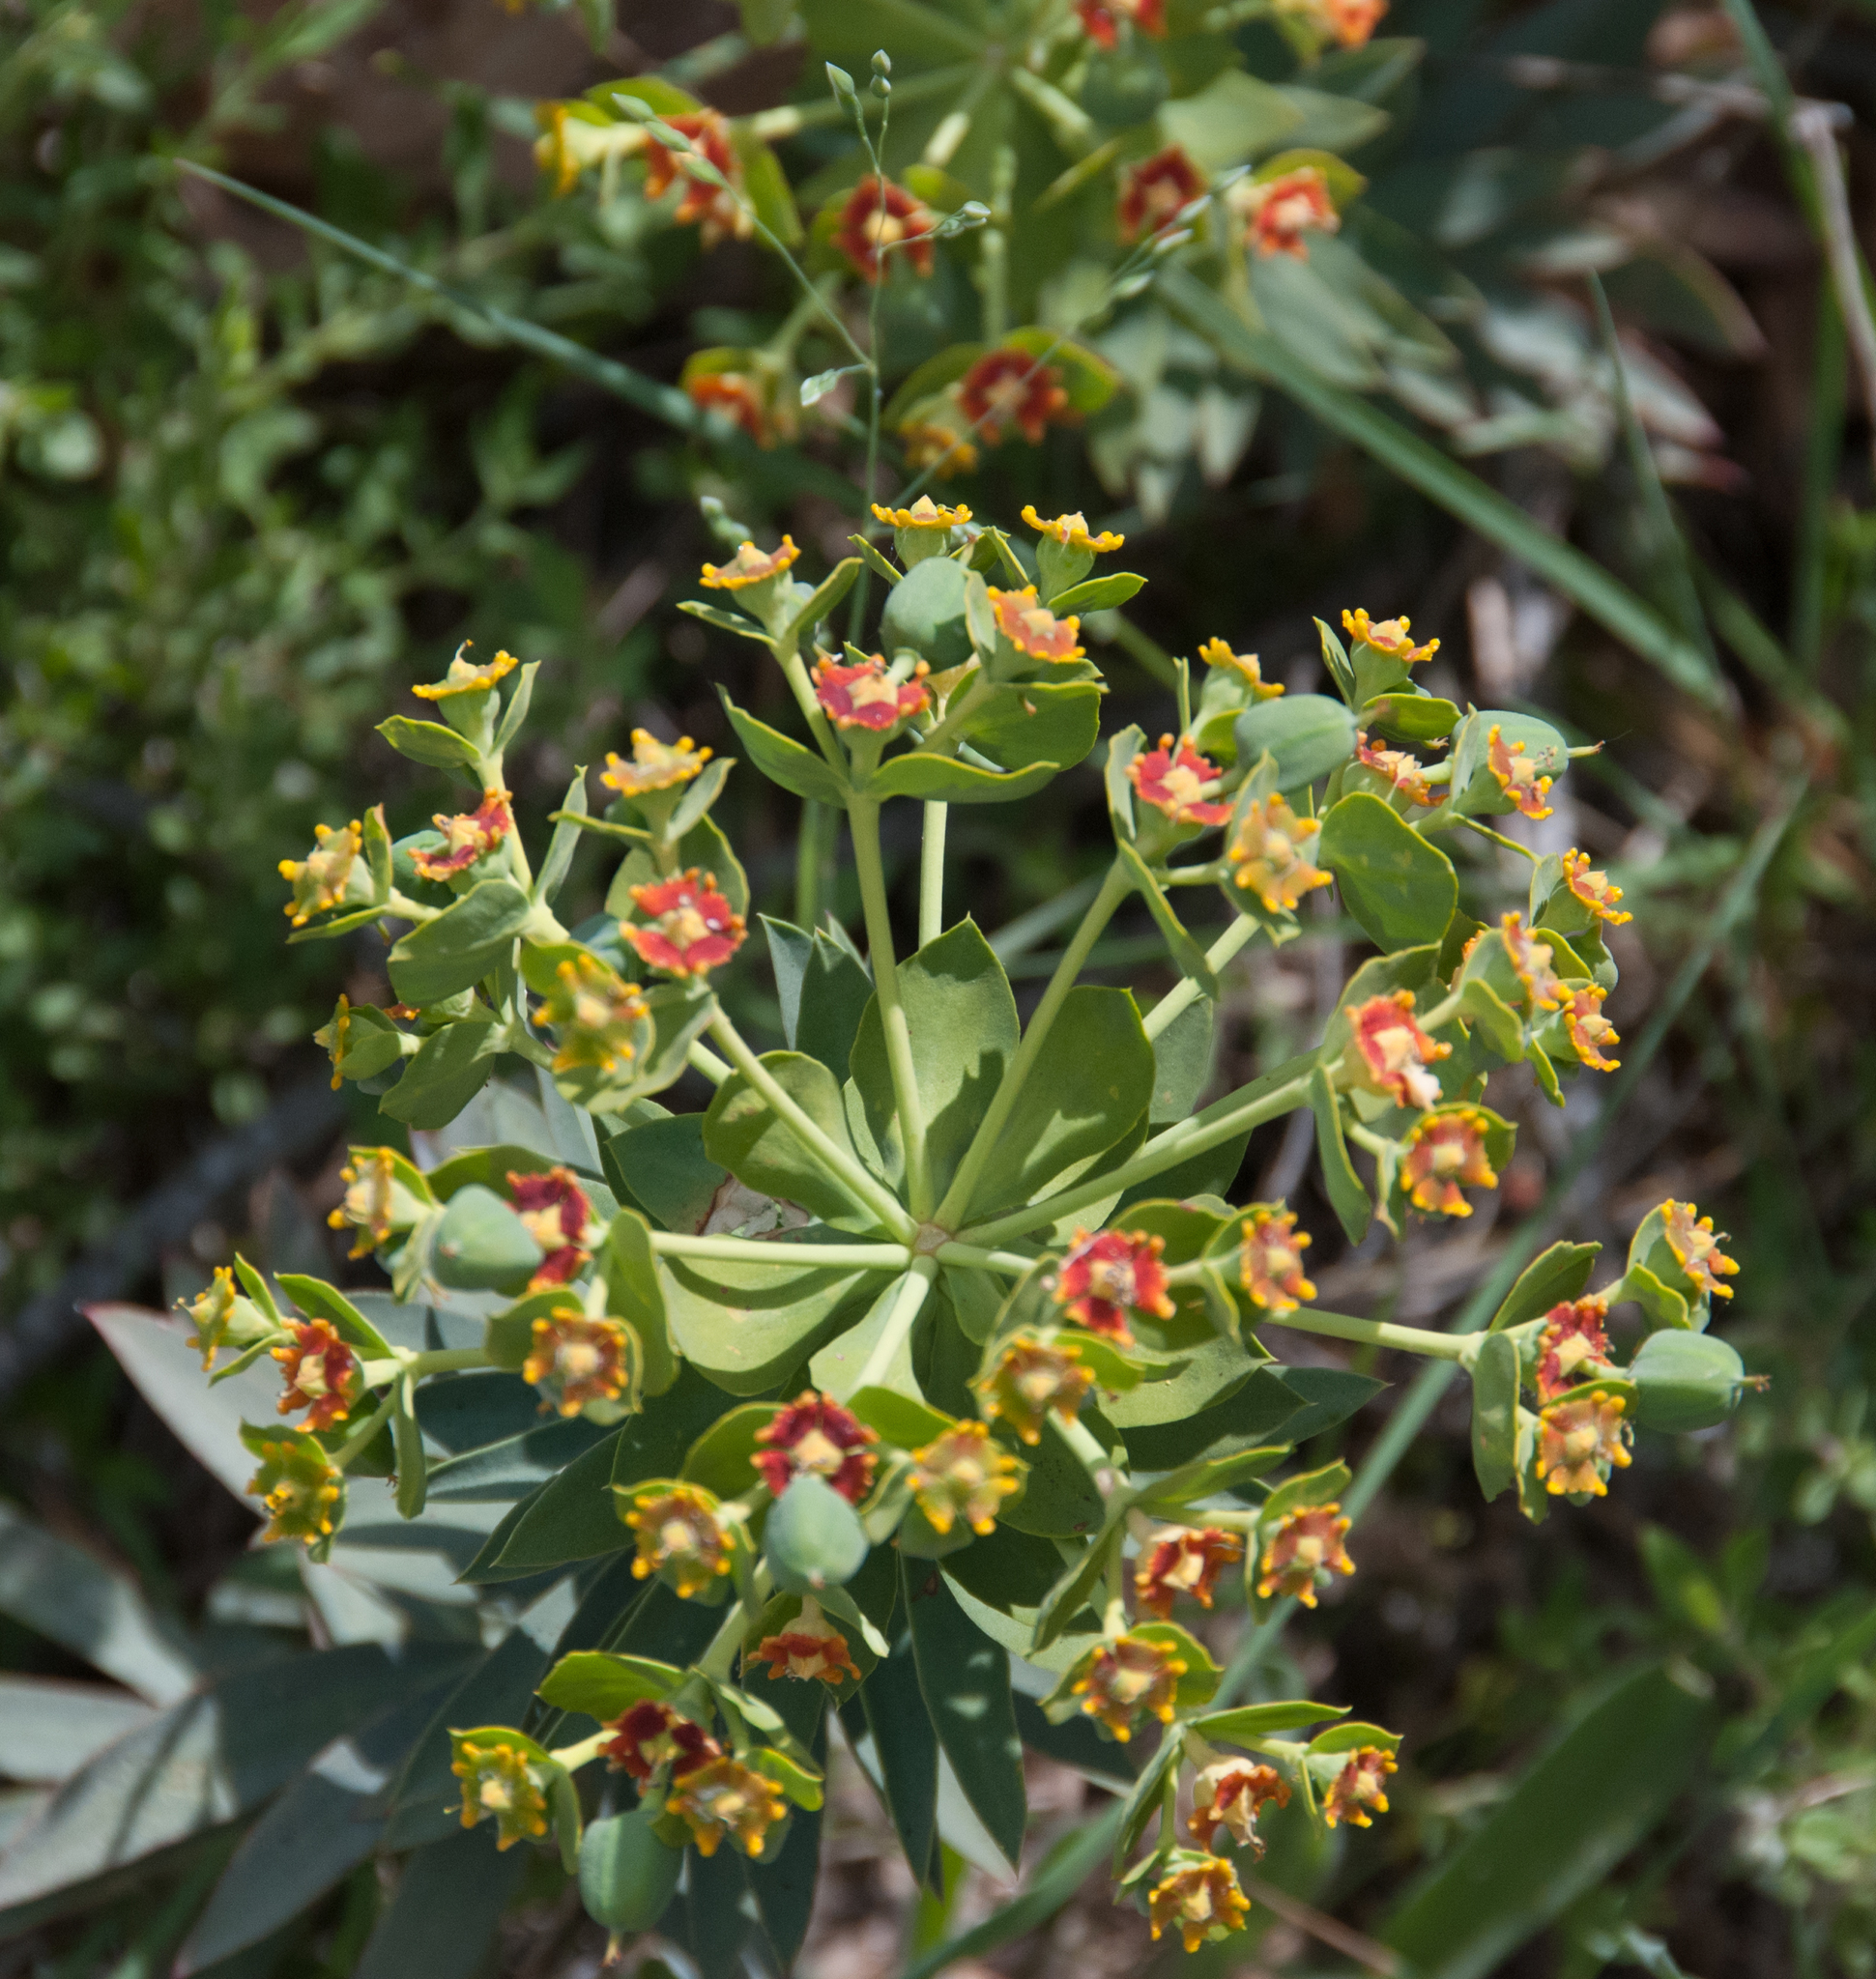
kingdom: Plantae
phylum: Tracheophyta
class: Magnoliopsida
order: Malpighiales
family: Euphorbiaceae
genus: Euphorbia
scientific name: Euphorbia oxyphylla
